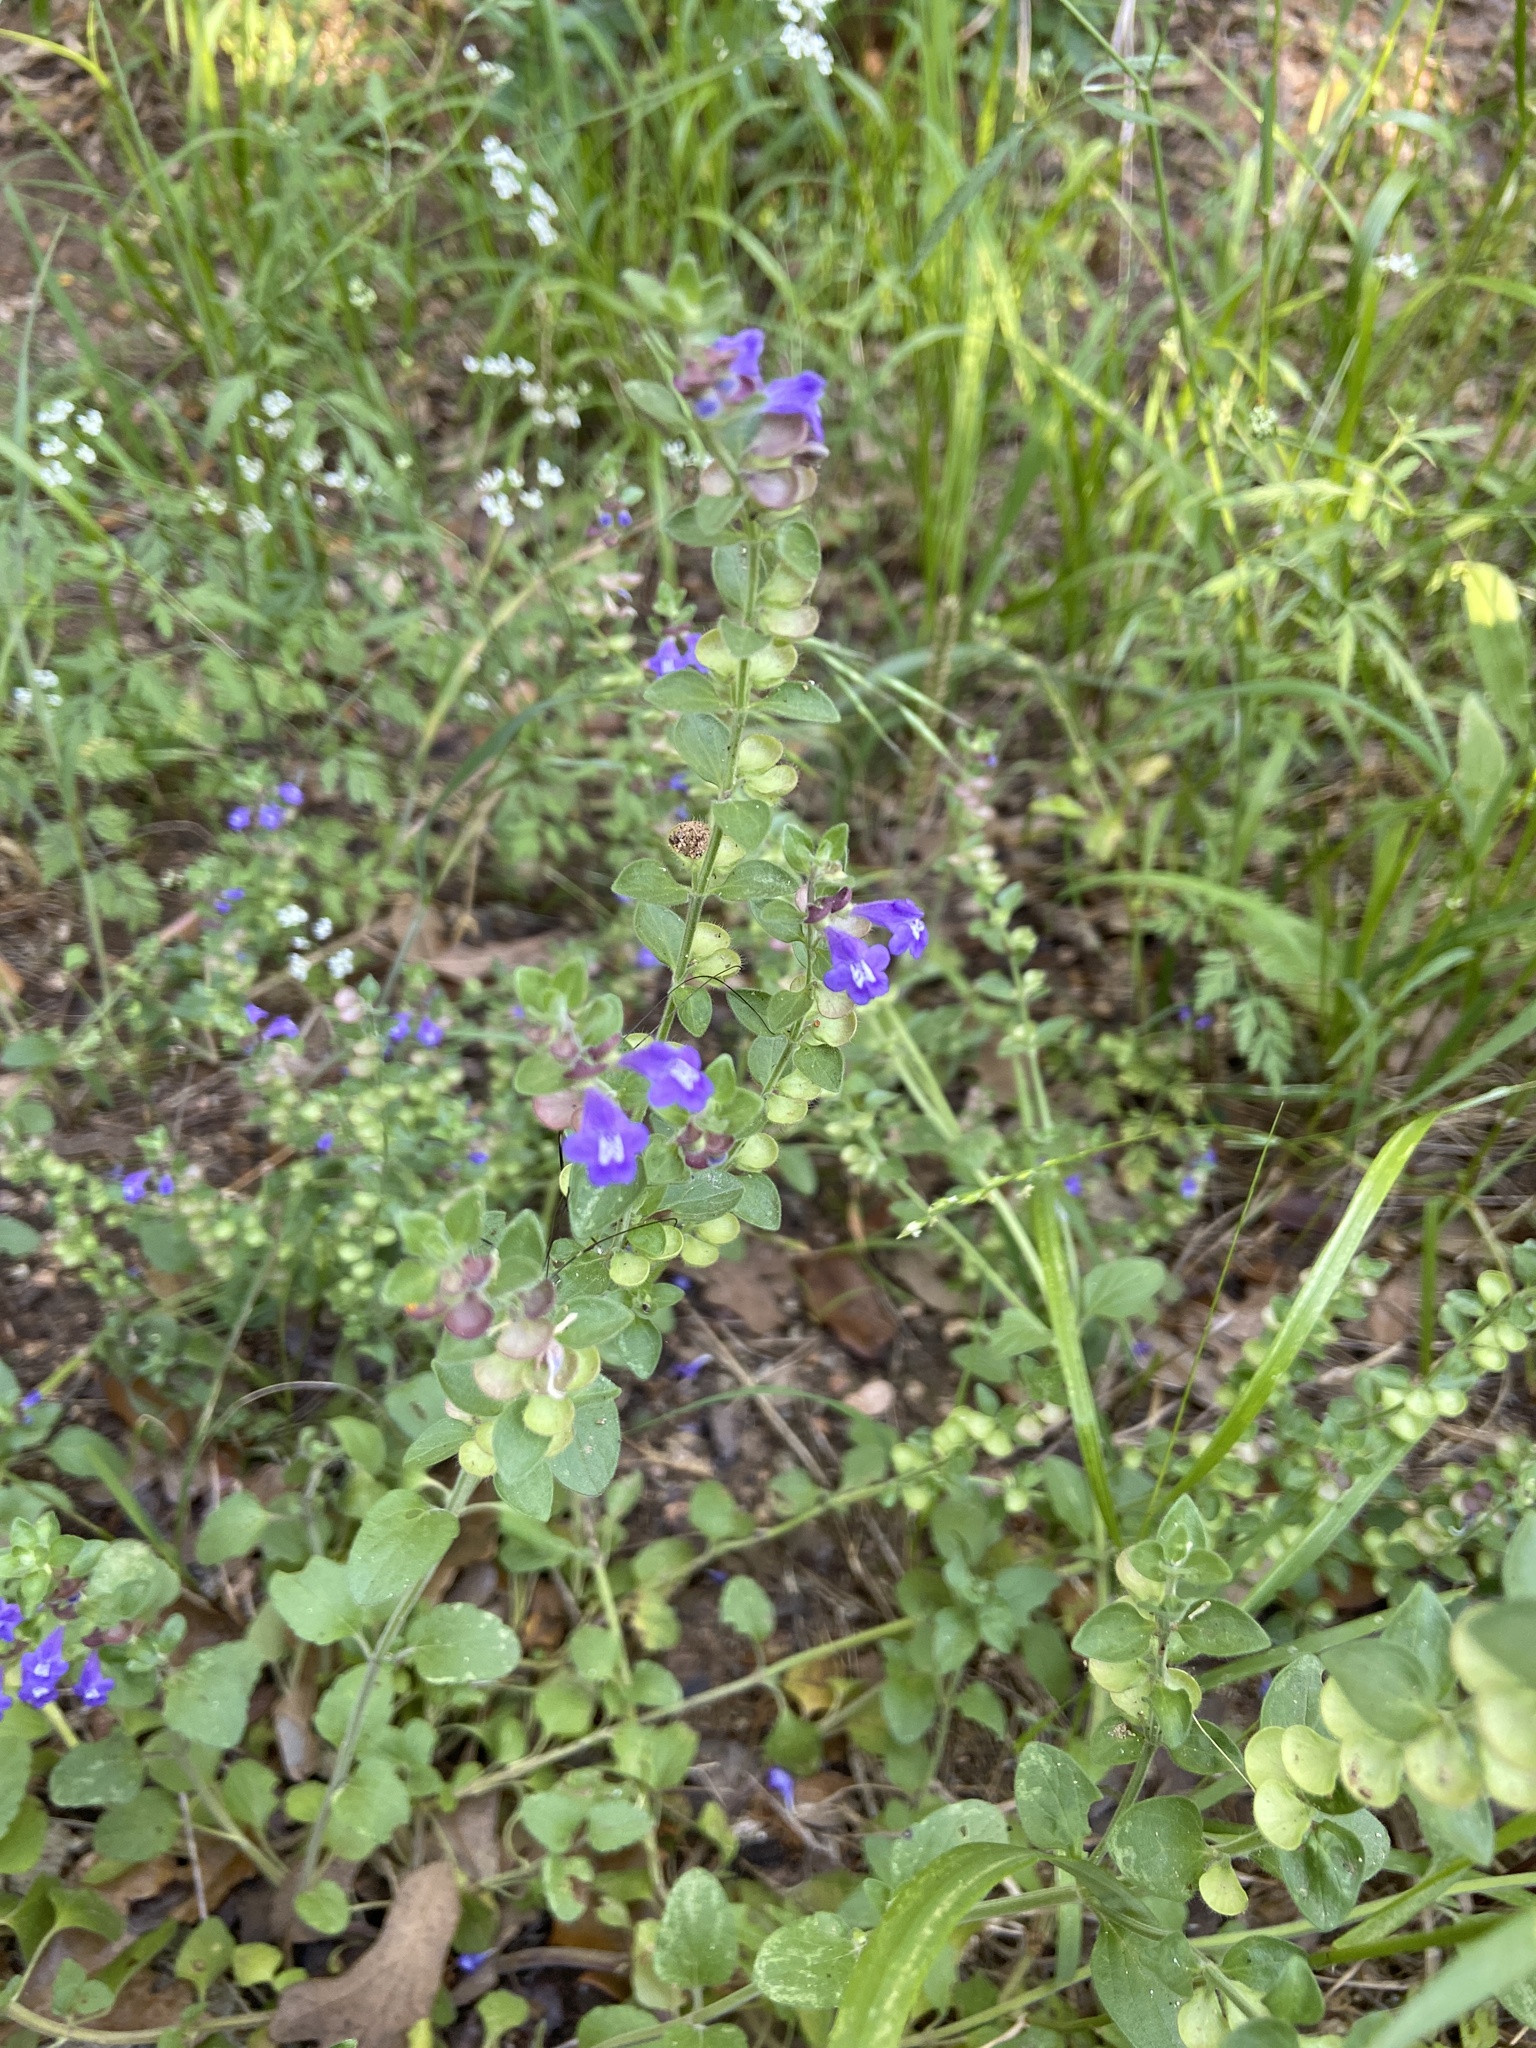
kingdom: Plantae
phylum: Tracheophyta
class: Magnoliopsida
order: Lamiales
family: Lamiaceae
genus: Scutellaria
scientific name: Scutellaria drummondii
